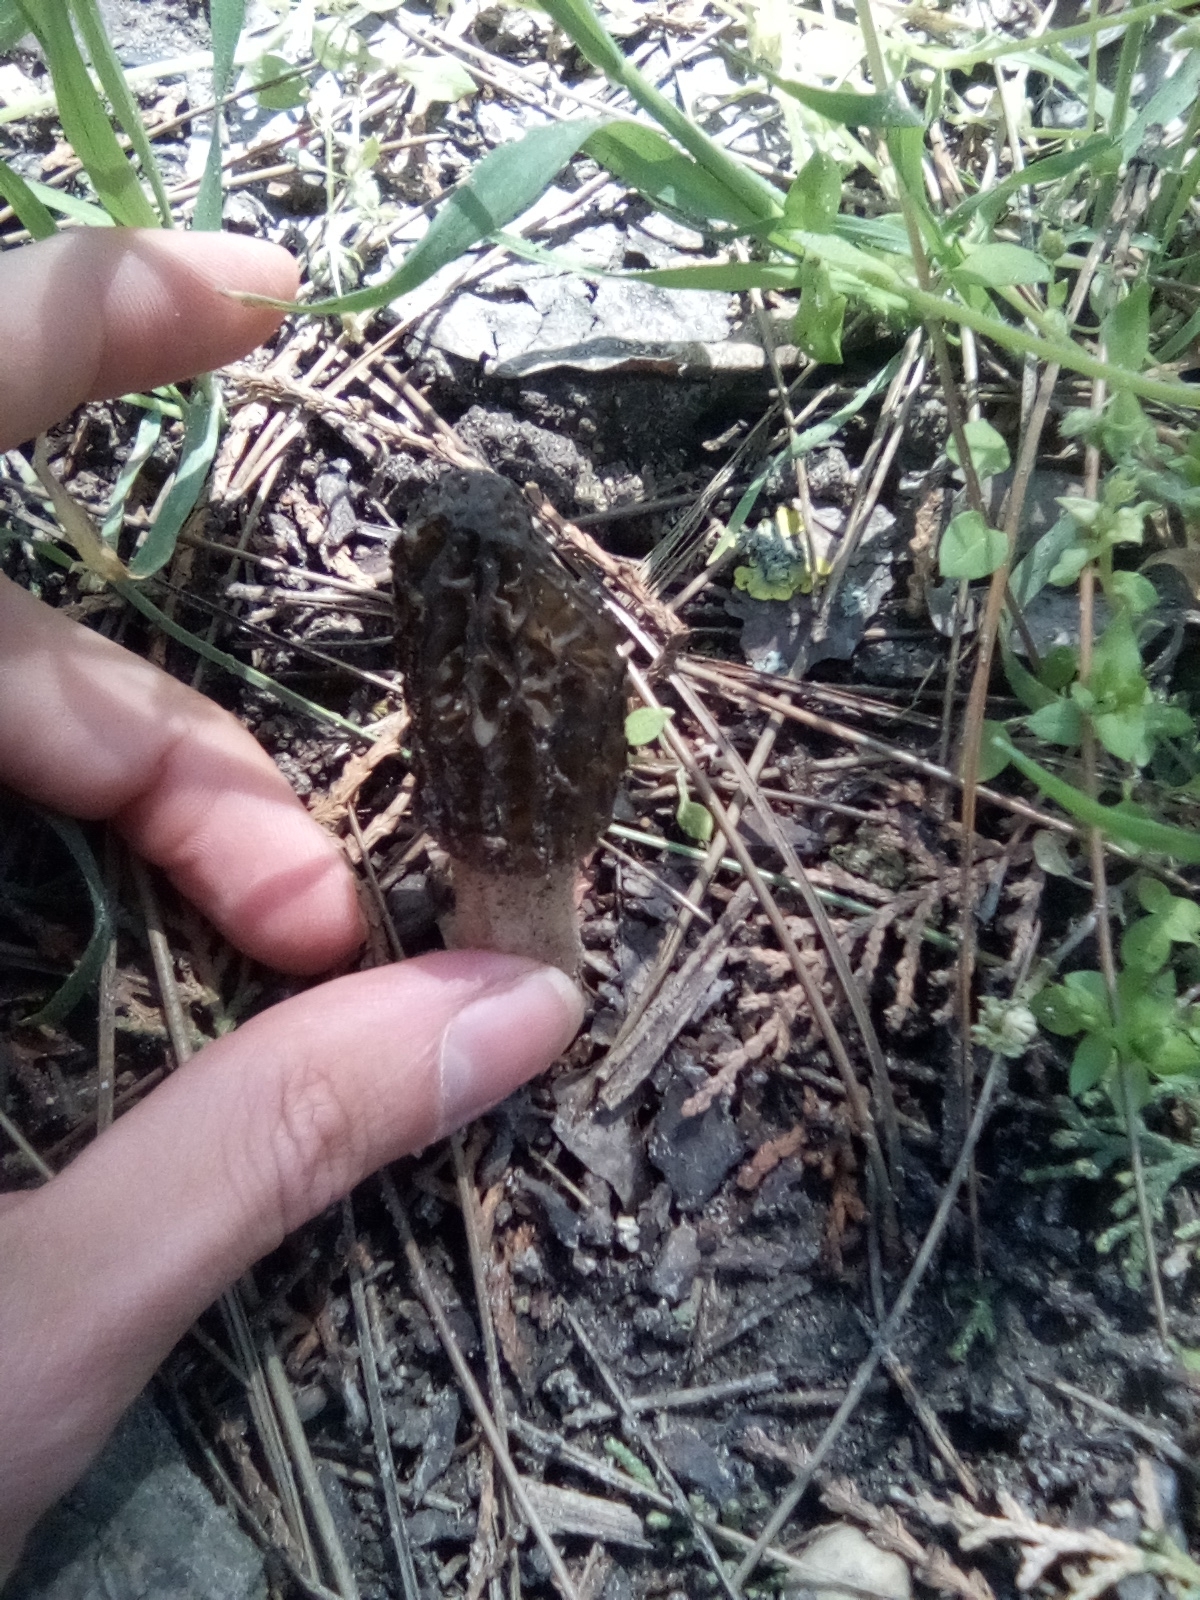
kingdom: Fungi
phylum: Ascomycota
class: Pezizomycetes
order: Pezizales
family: Morchellaceae
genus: Morchella
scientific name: Morchella
